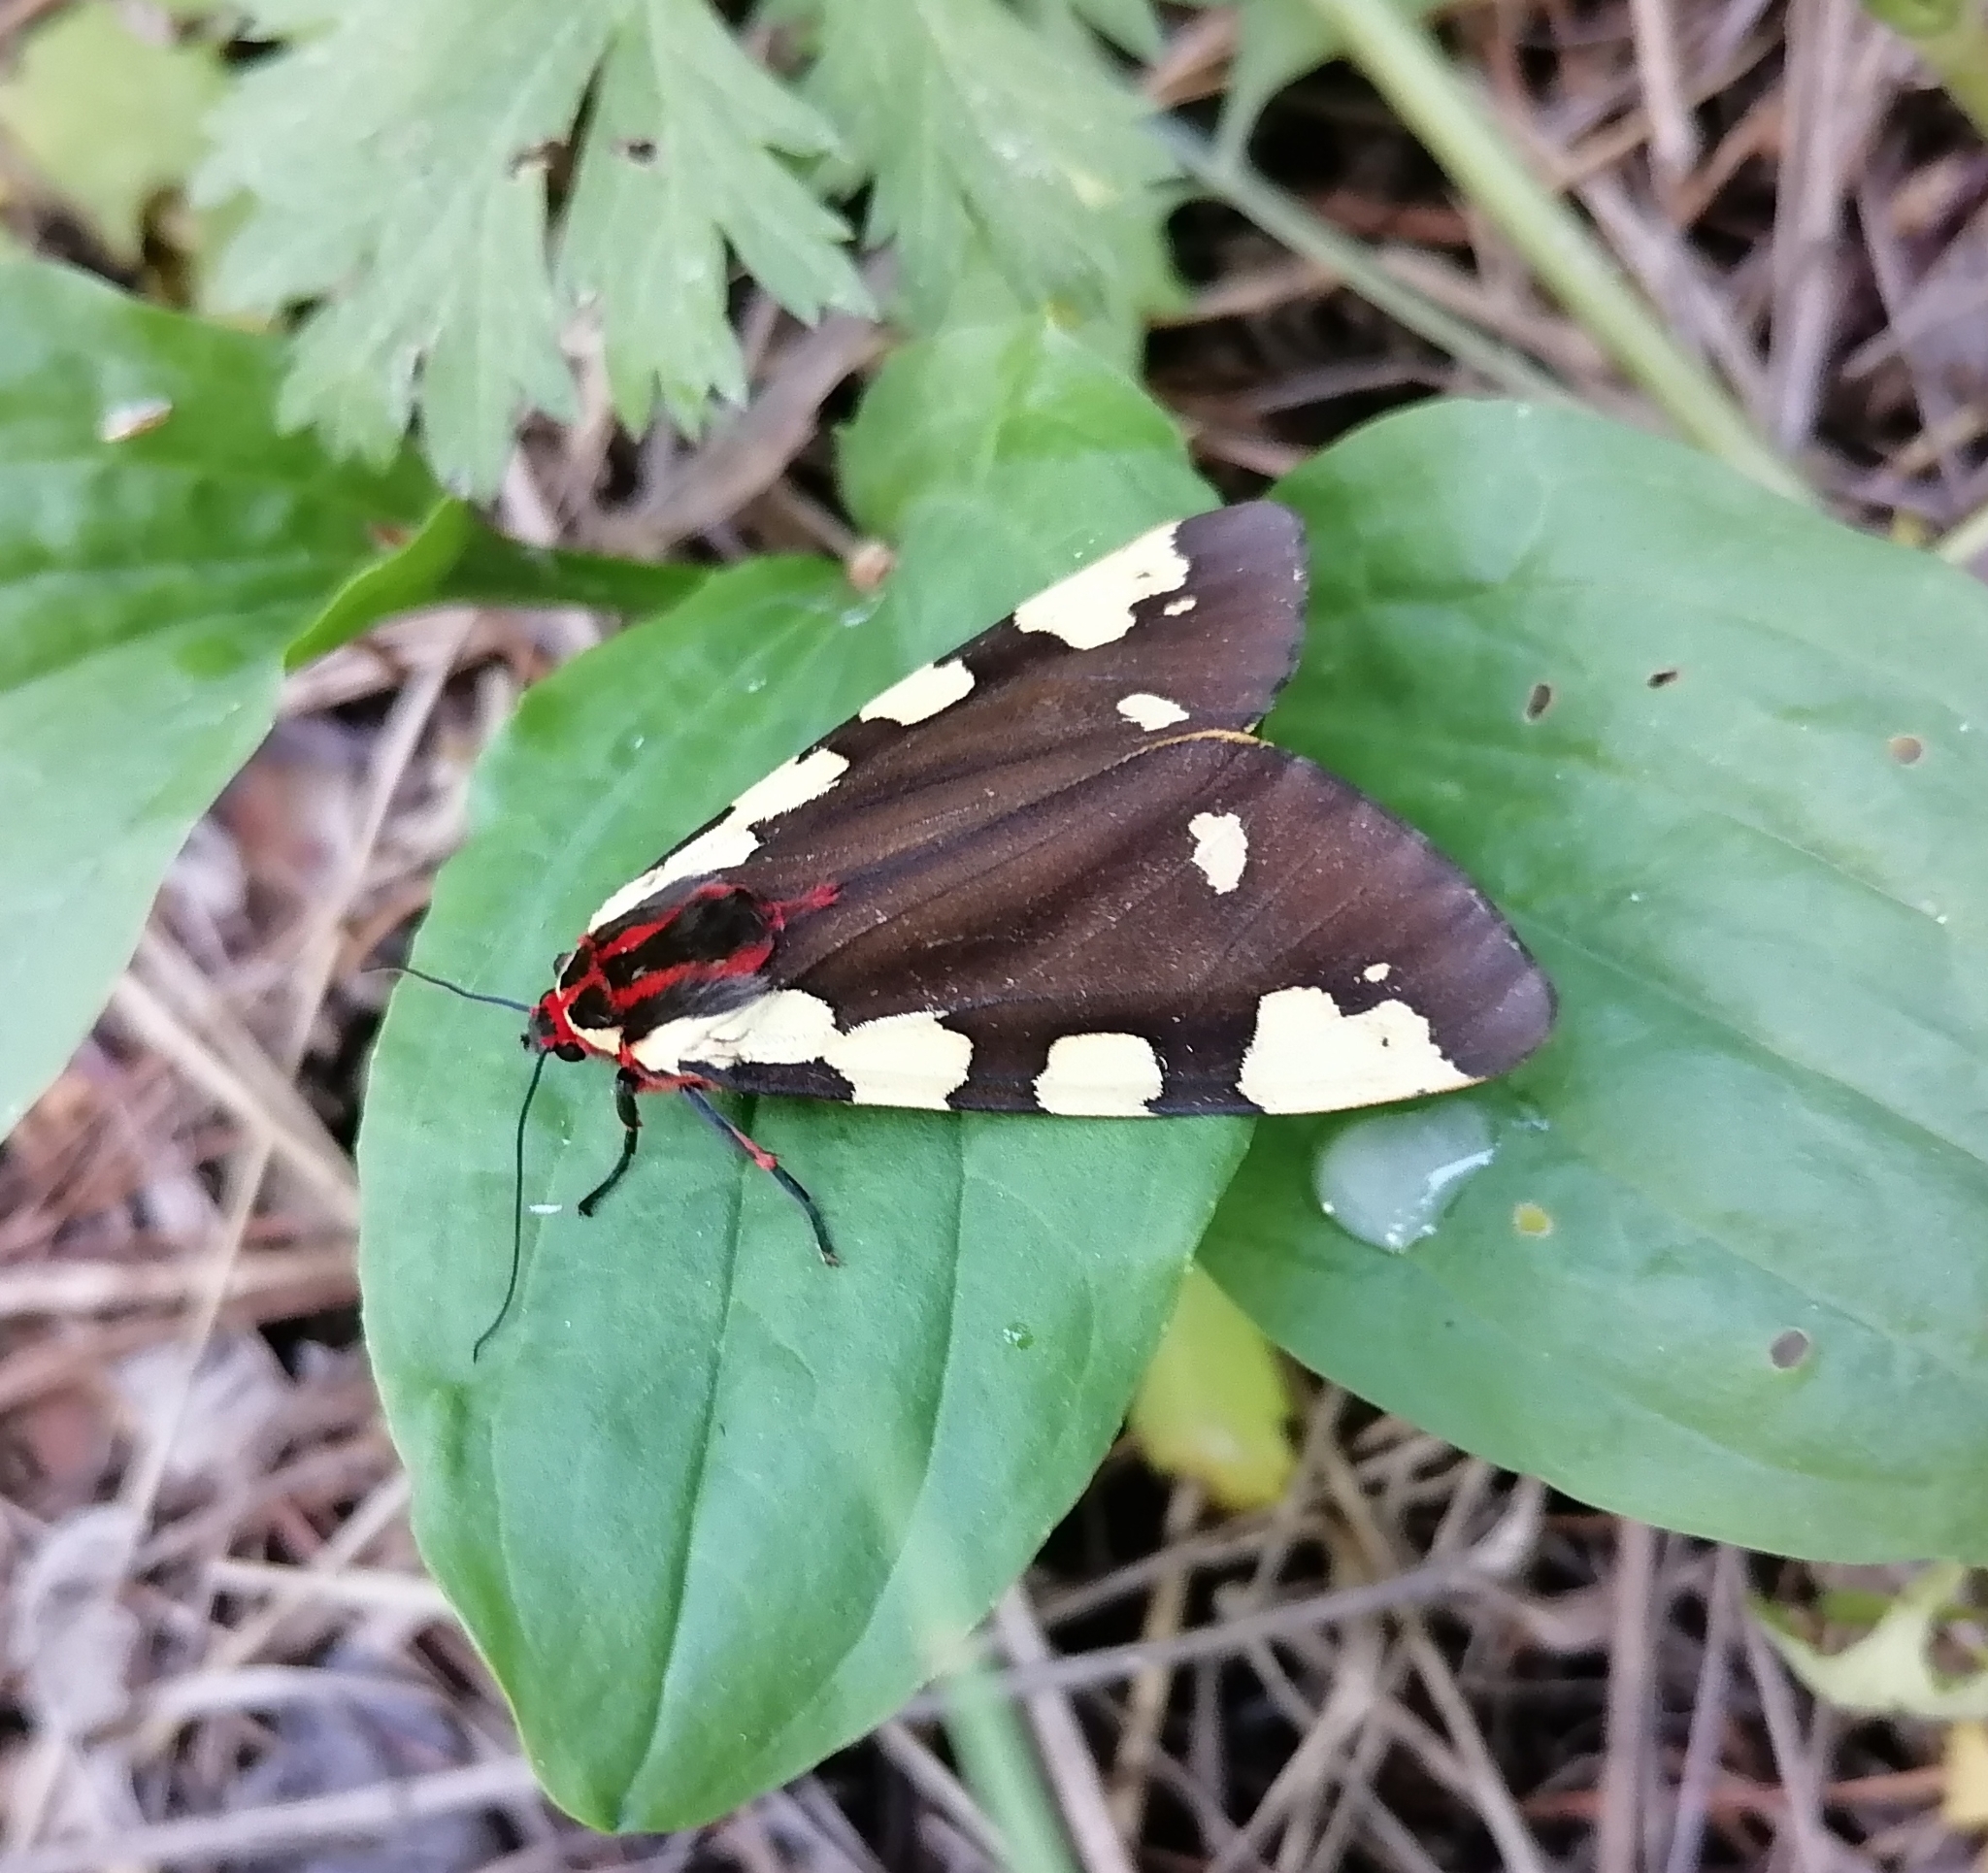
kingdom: Animalia
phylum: Arthropoda
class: Insecta
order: Lepidoptera
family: Erebidae
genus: Pericallia
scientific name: Pericallia matronula
